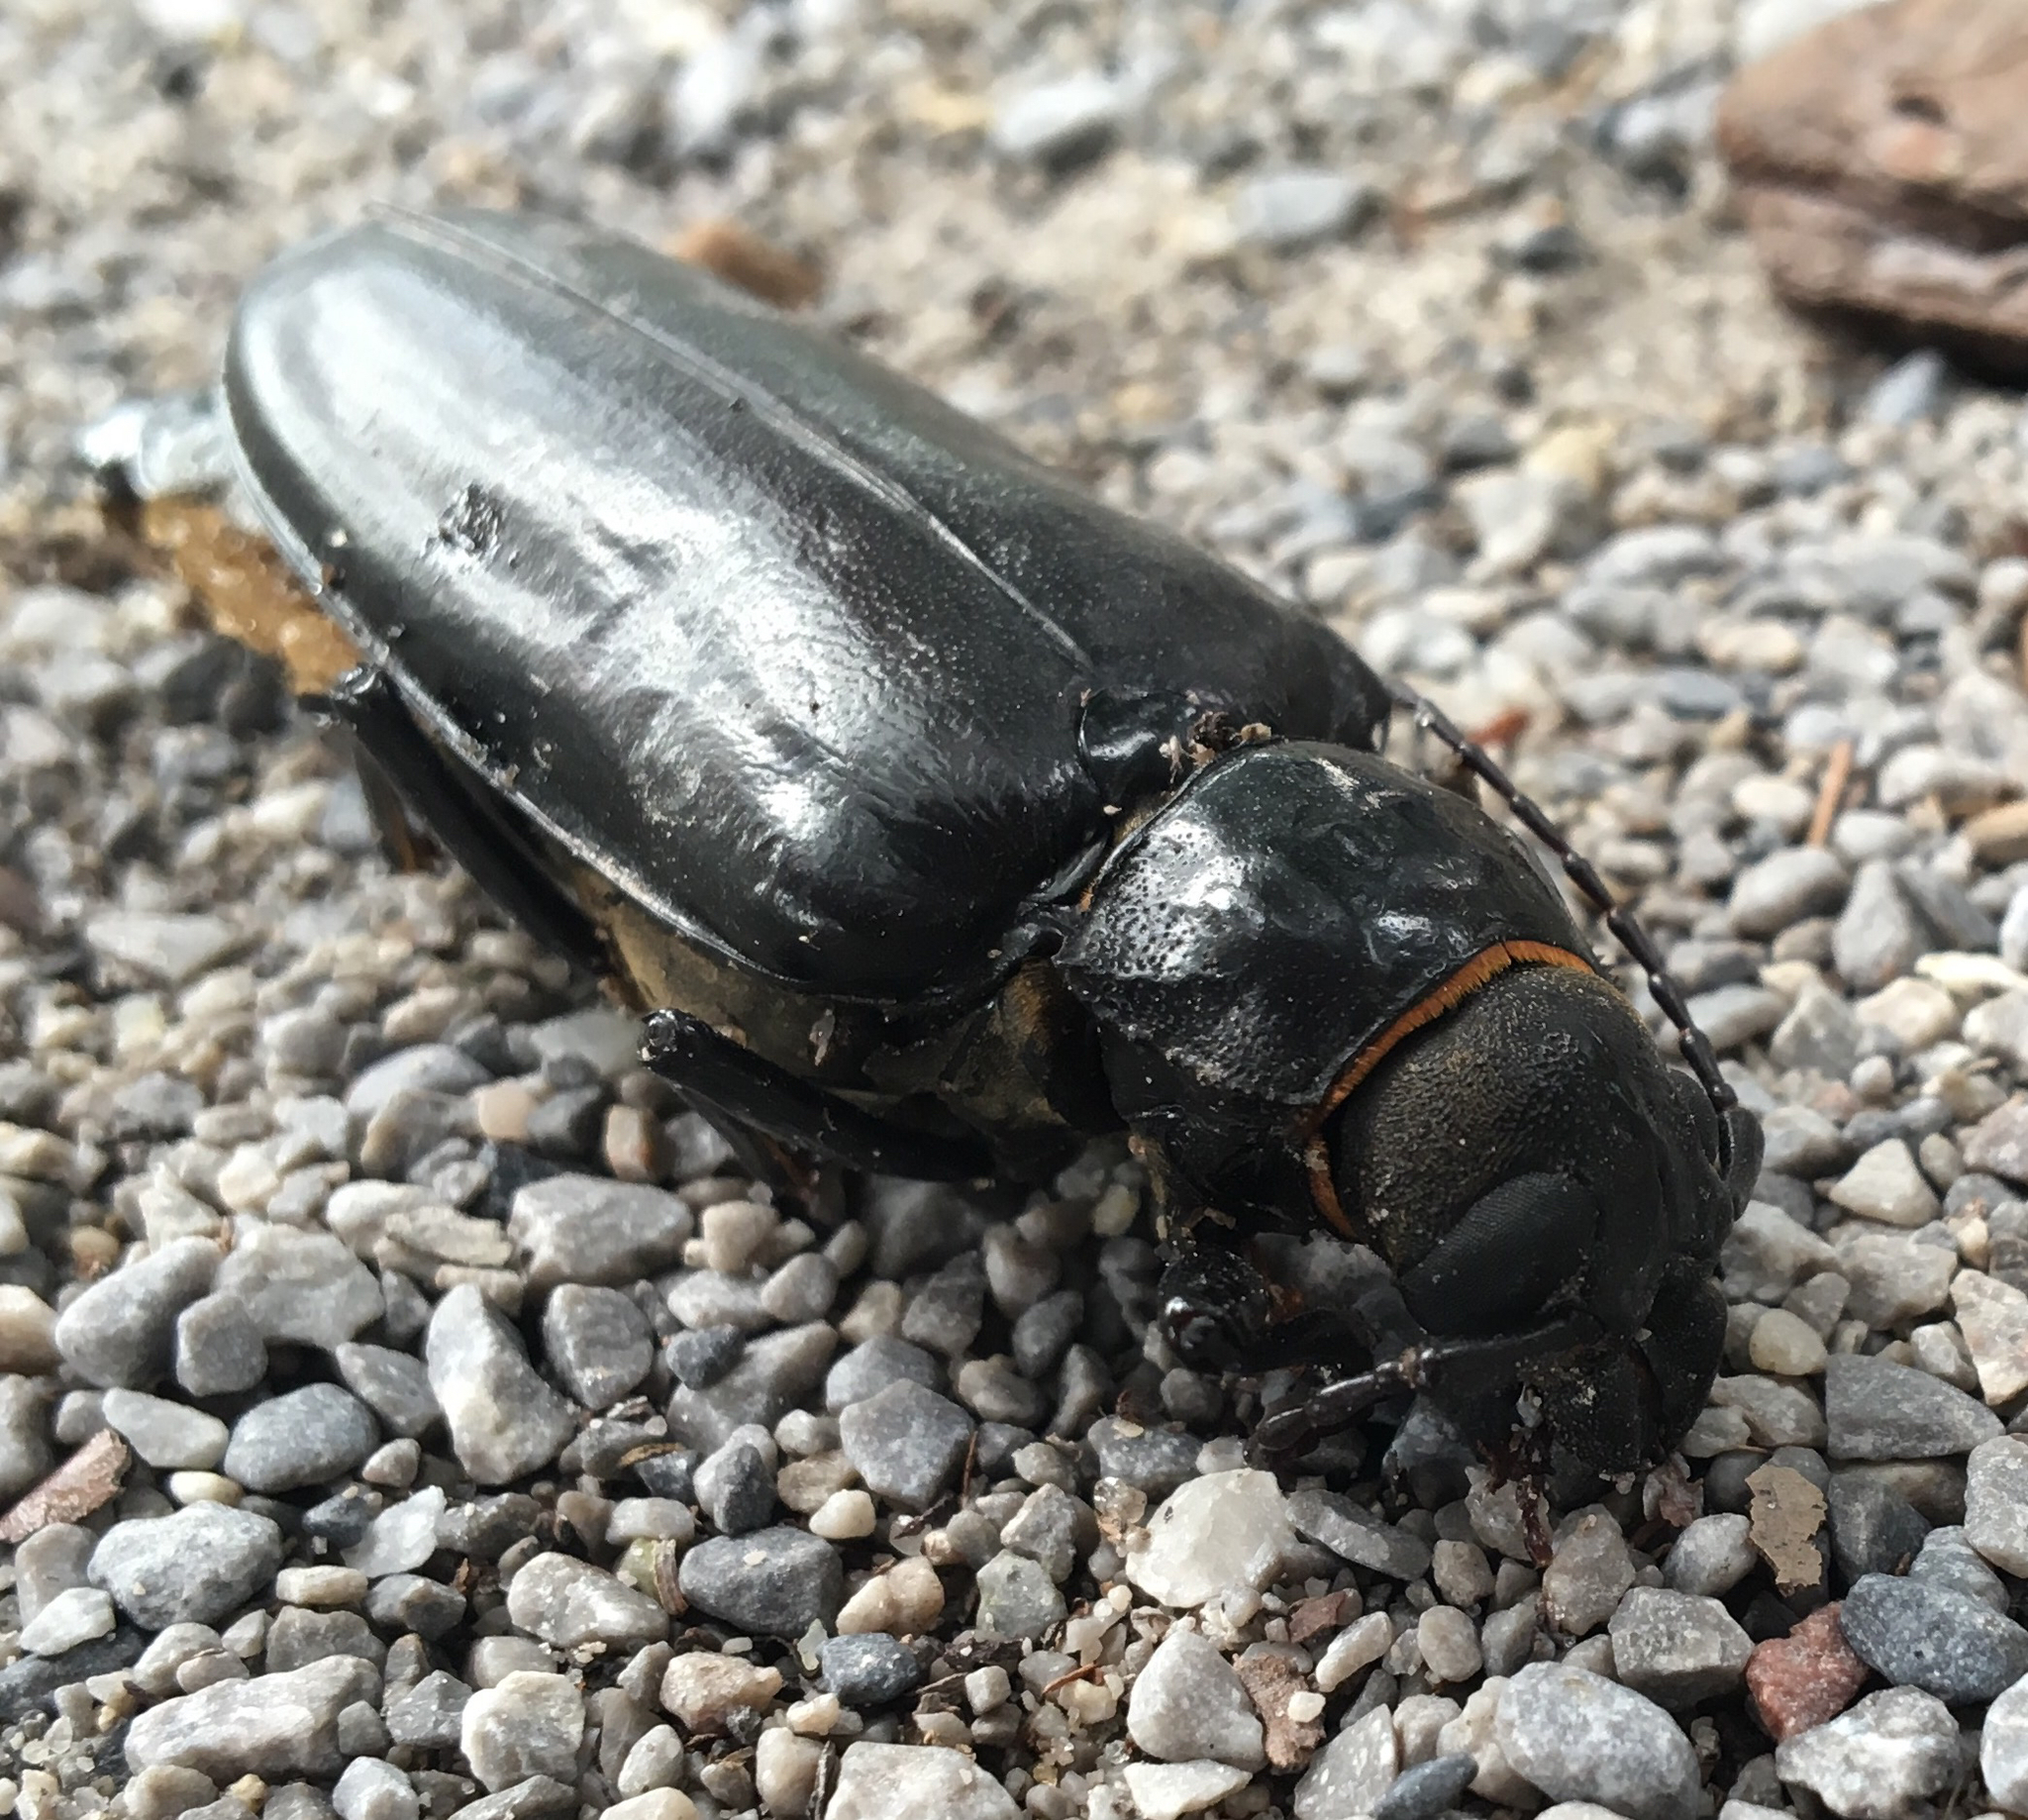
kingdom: Animalia
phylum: Arthropoda
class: Insecta
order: Coleoptera
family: Cerambycidae
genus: Archodontes
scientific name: Archodontes melanopus
